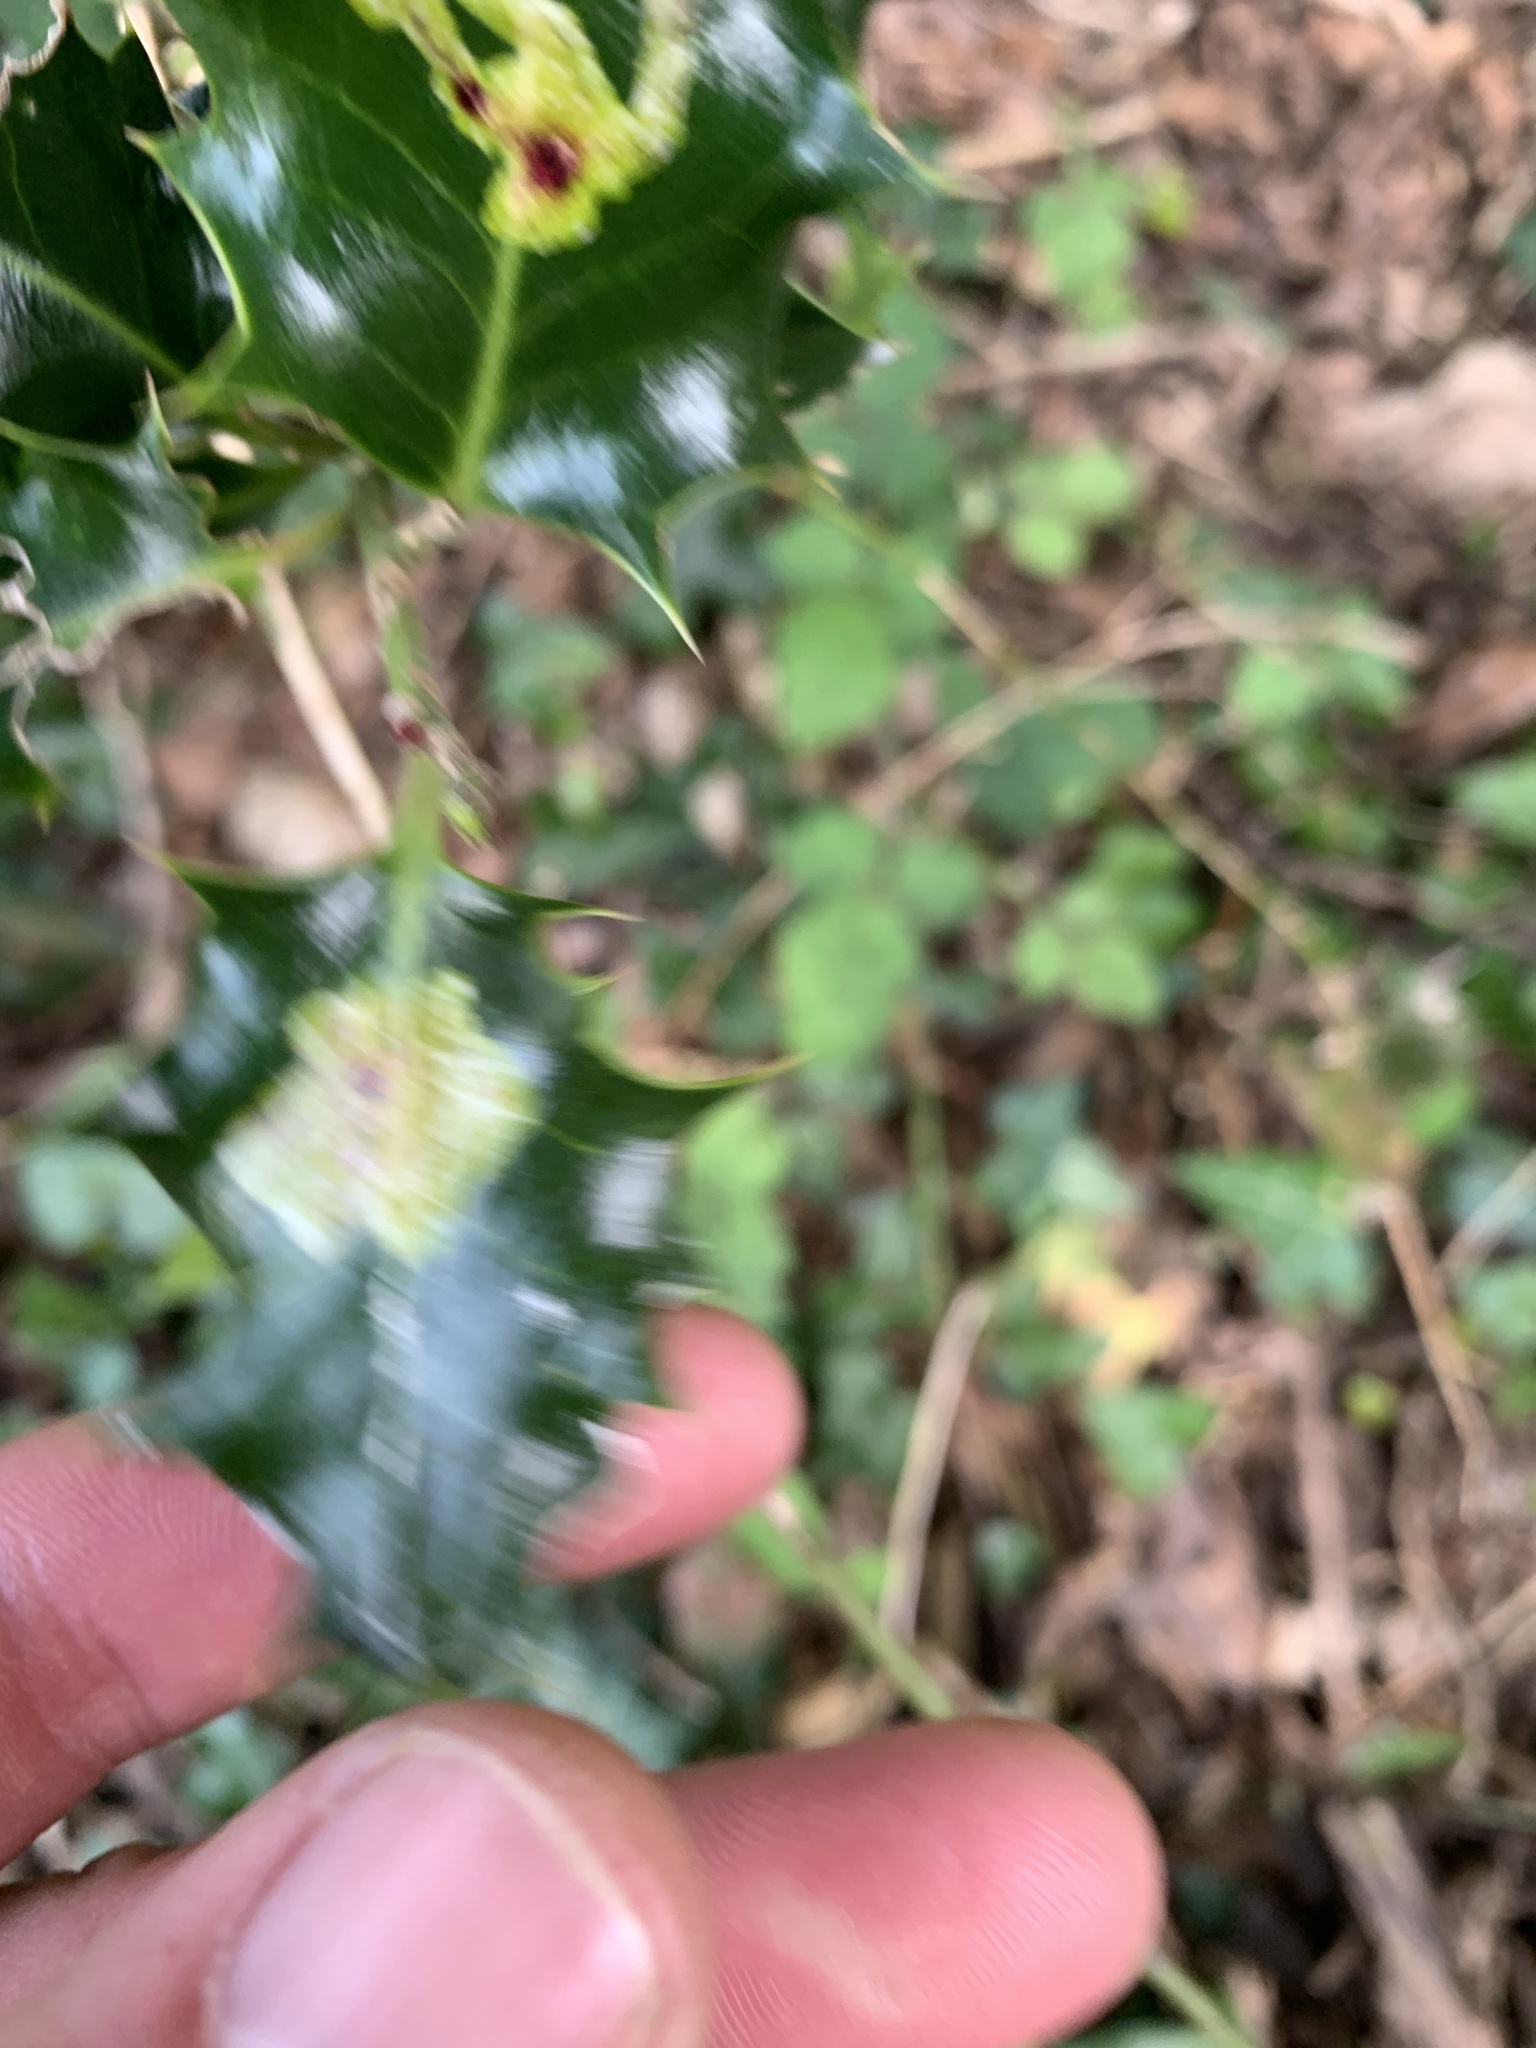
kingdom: Animalia
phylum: Arthropoda
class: Insecta
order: Diptera
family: Agromyzidae
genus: Phytomyza
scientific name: Phytomyza ilicis
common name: Holly leafminer
